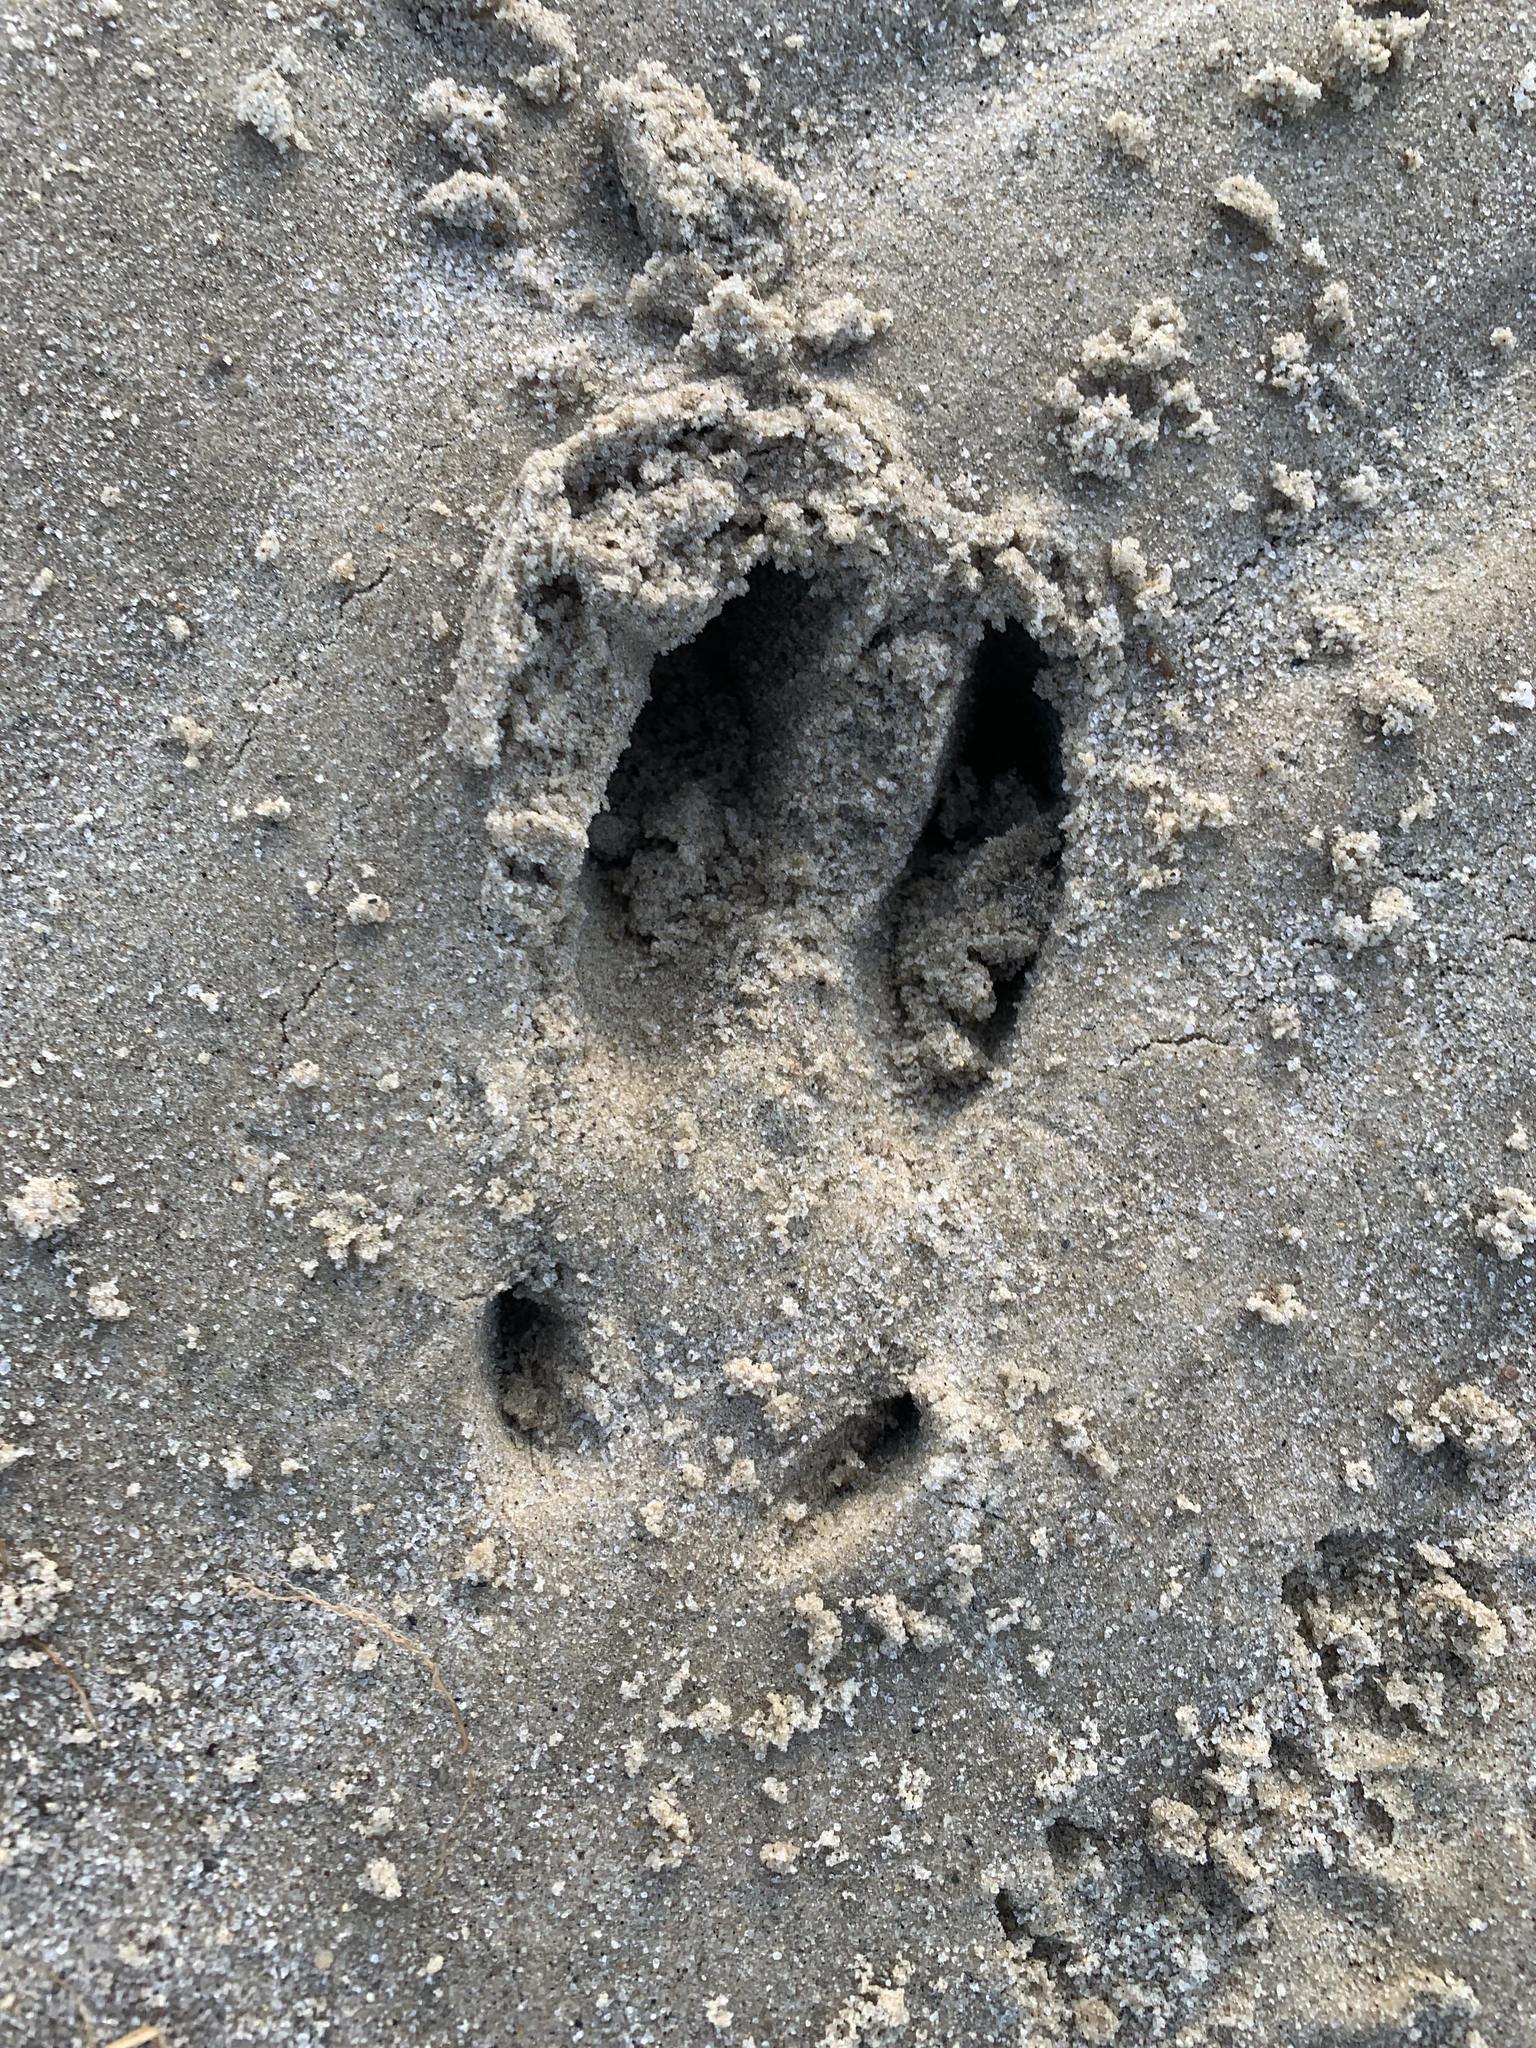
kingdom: Animalia
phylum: Chordata
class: Mammalia
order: Artiodactyla
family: Cervidae
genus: Odocoileus
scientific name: Odocoileus virginianus
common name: White-tailed deer
